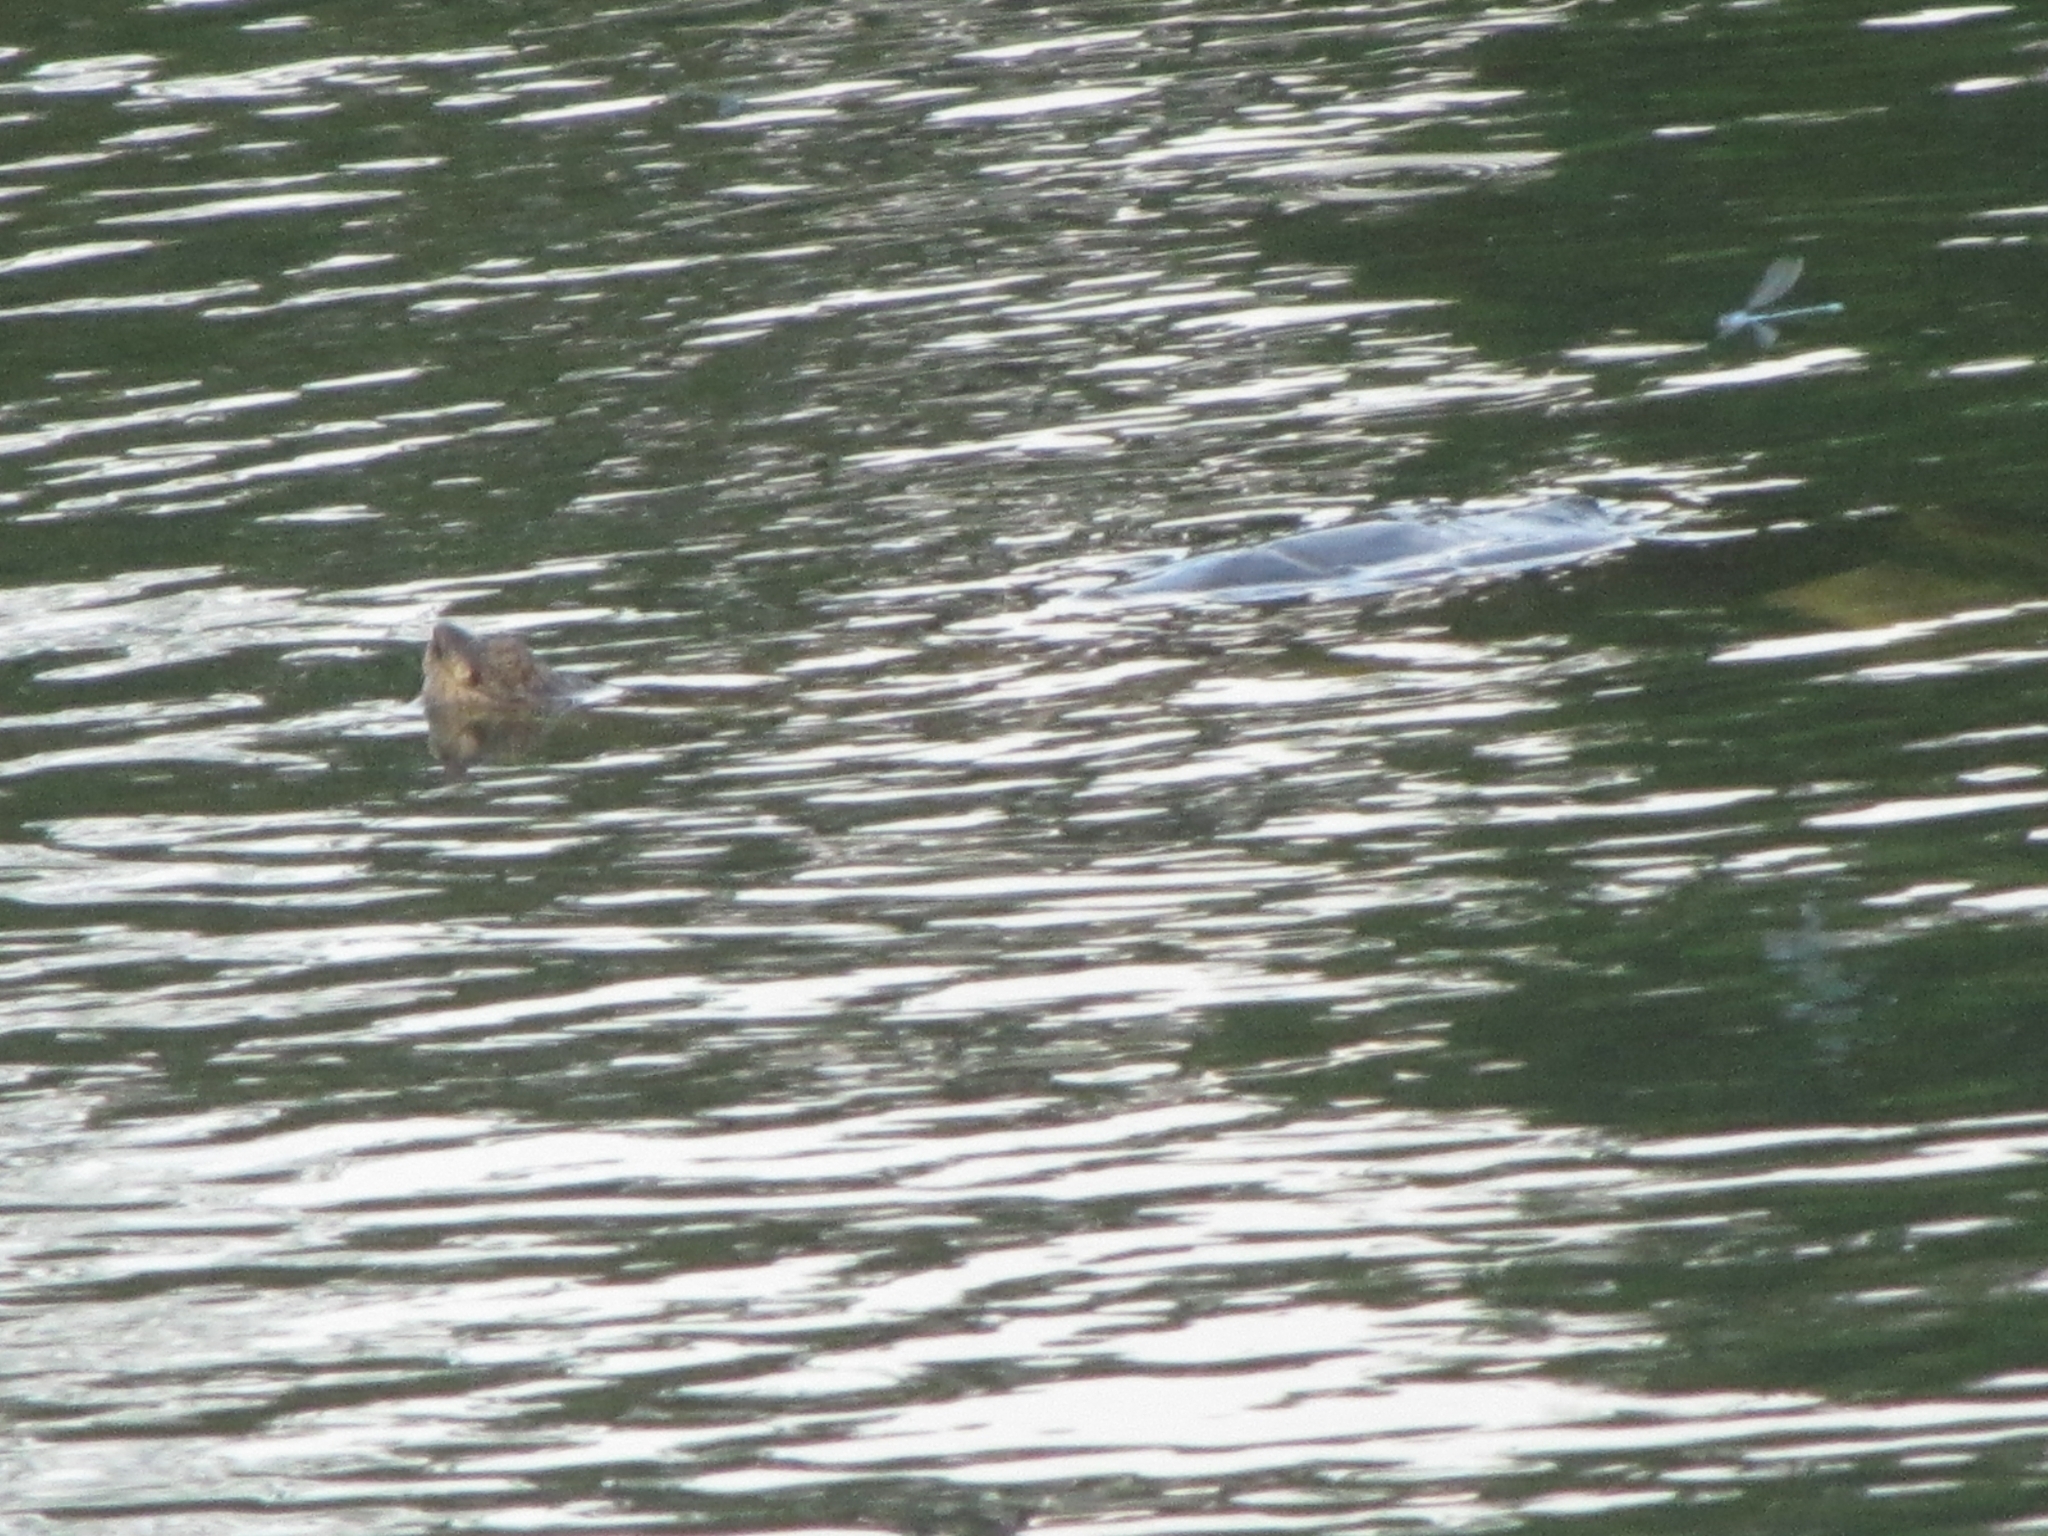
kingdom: Animalia
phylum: Chordata
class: Testudines
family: Chelydridae
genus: Chelydra
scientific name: Chelydra serpentina
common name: Common snapping turtle
